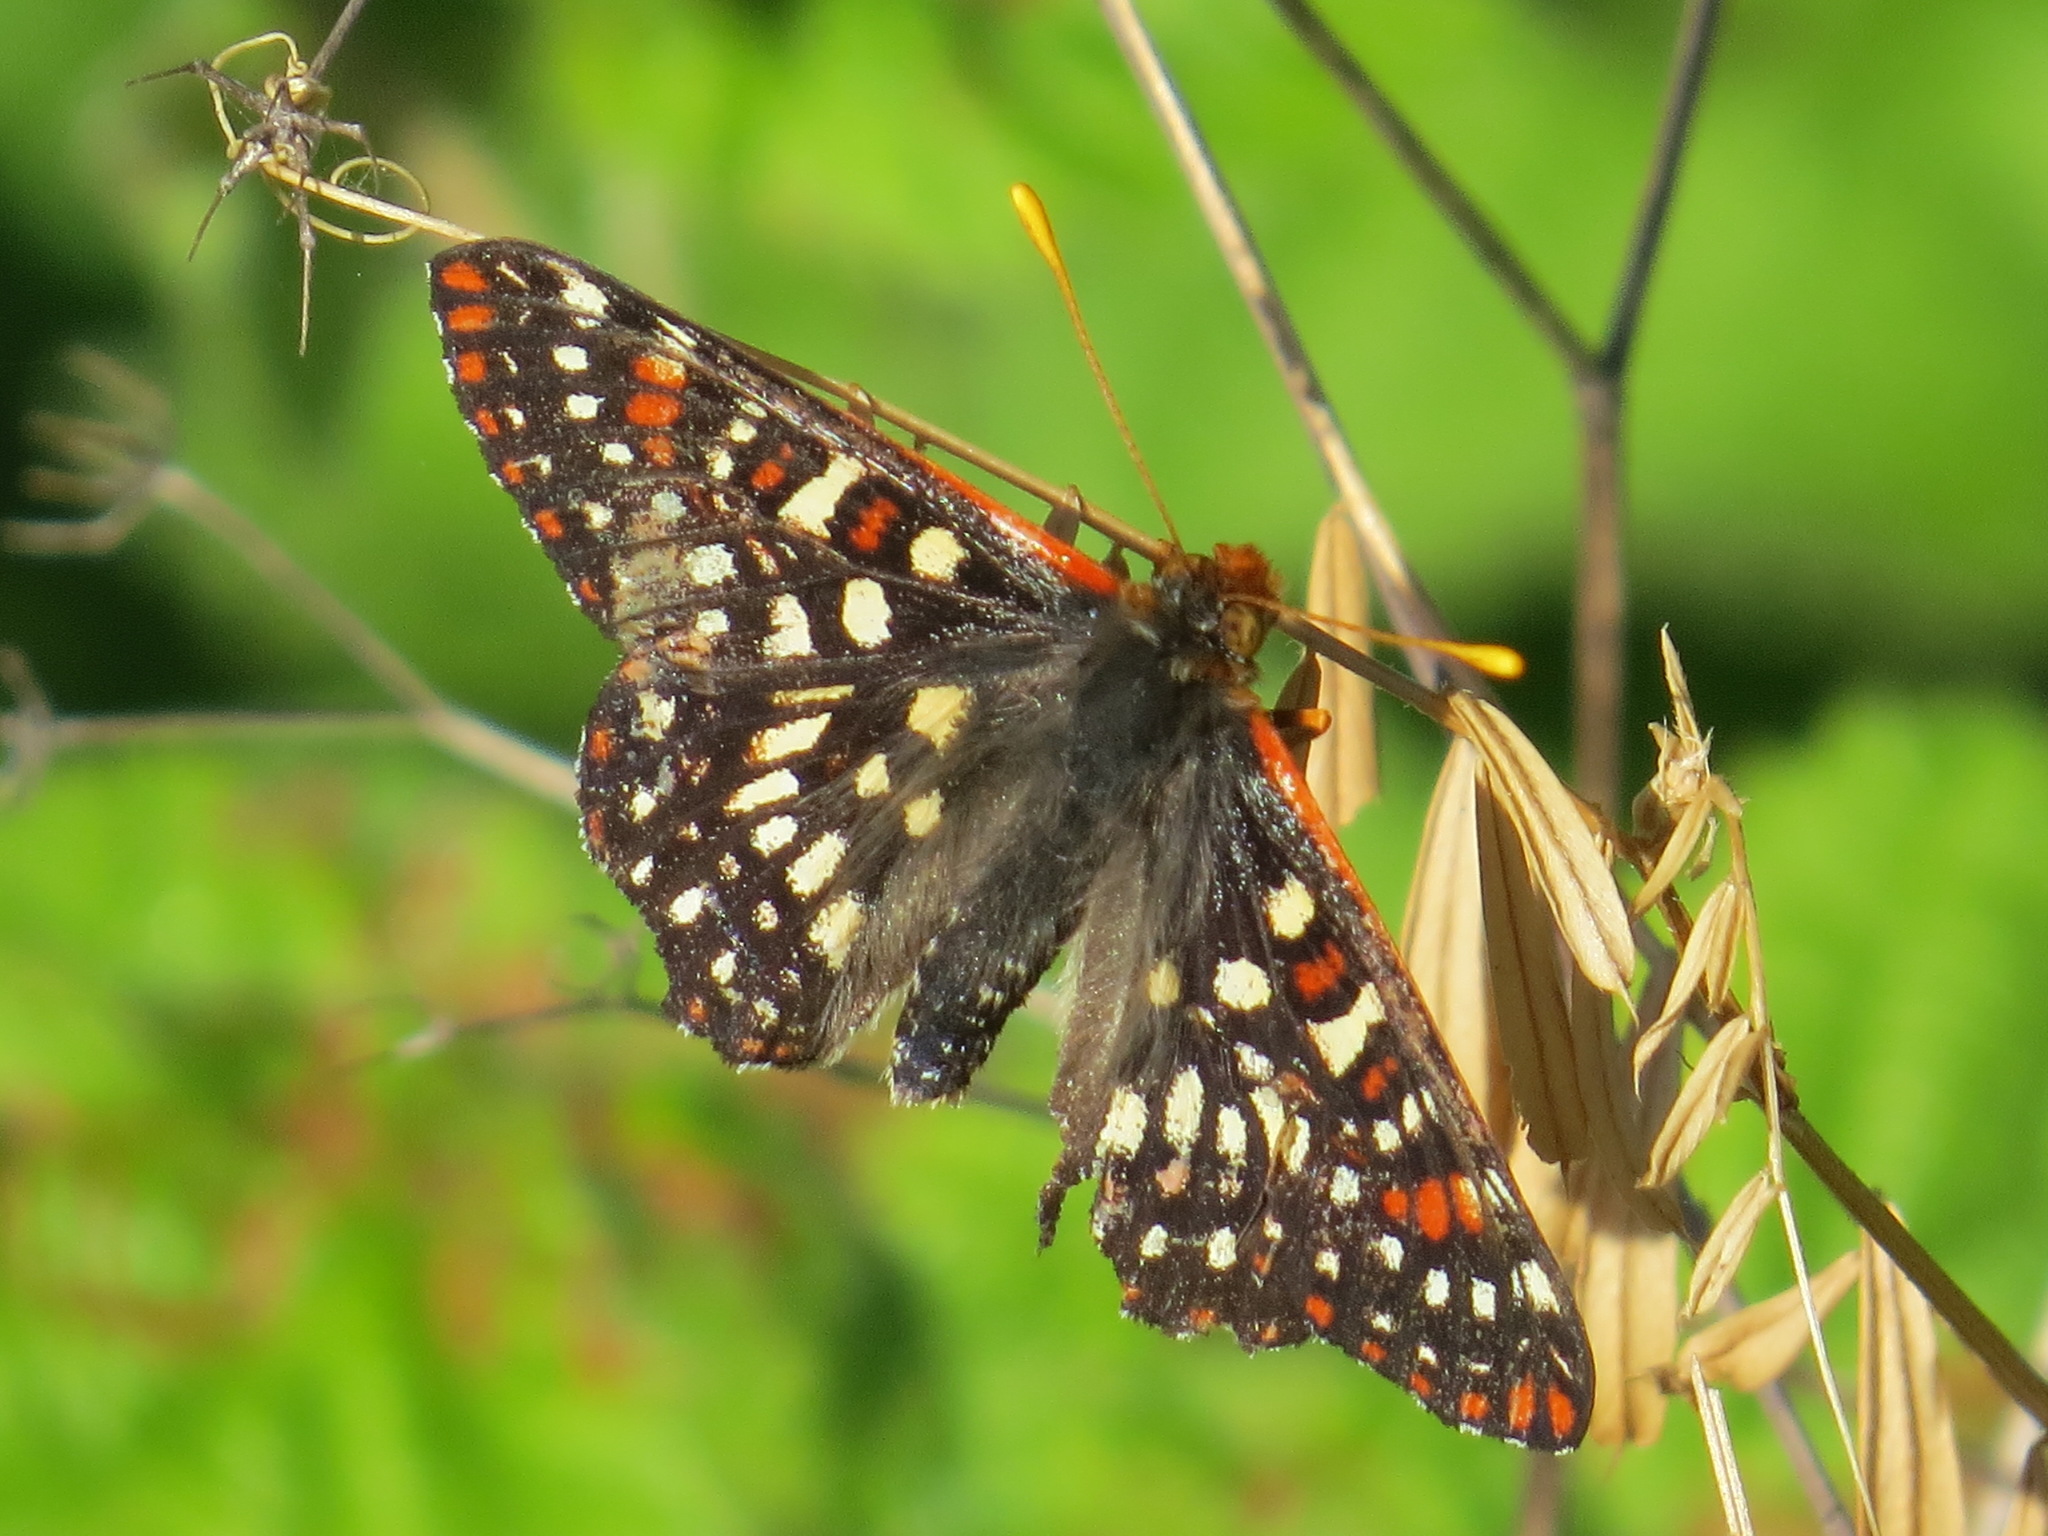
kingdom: Animalia
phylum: Arthropoda
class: Insecta
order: Lepidoptera
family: Nymphalidae
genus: Occidryas
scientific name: Occidryas chalcedona
